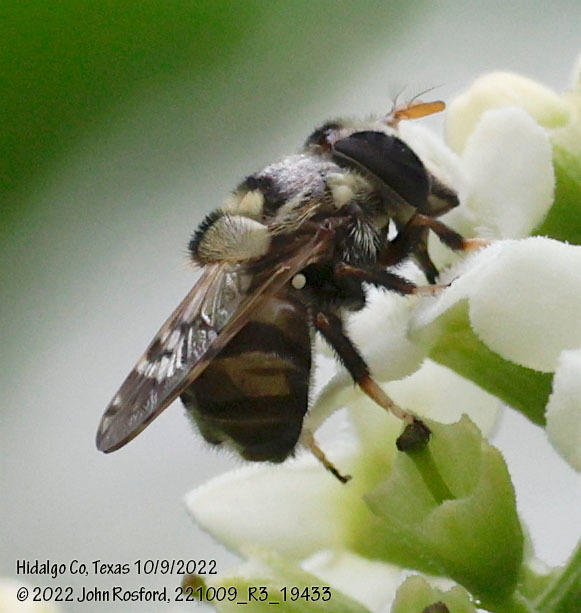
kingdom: Animalia
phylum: Arthropoda
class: Insecta
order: Diptera
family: Syrphidae
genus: Copestylum
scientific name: Copestylum tamaulipanum
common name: Syrphid fly
